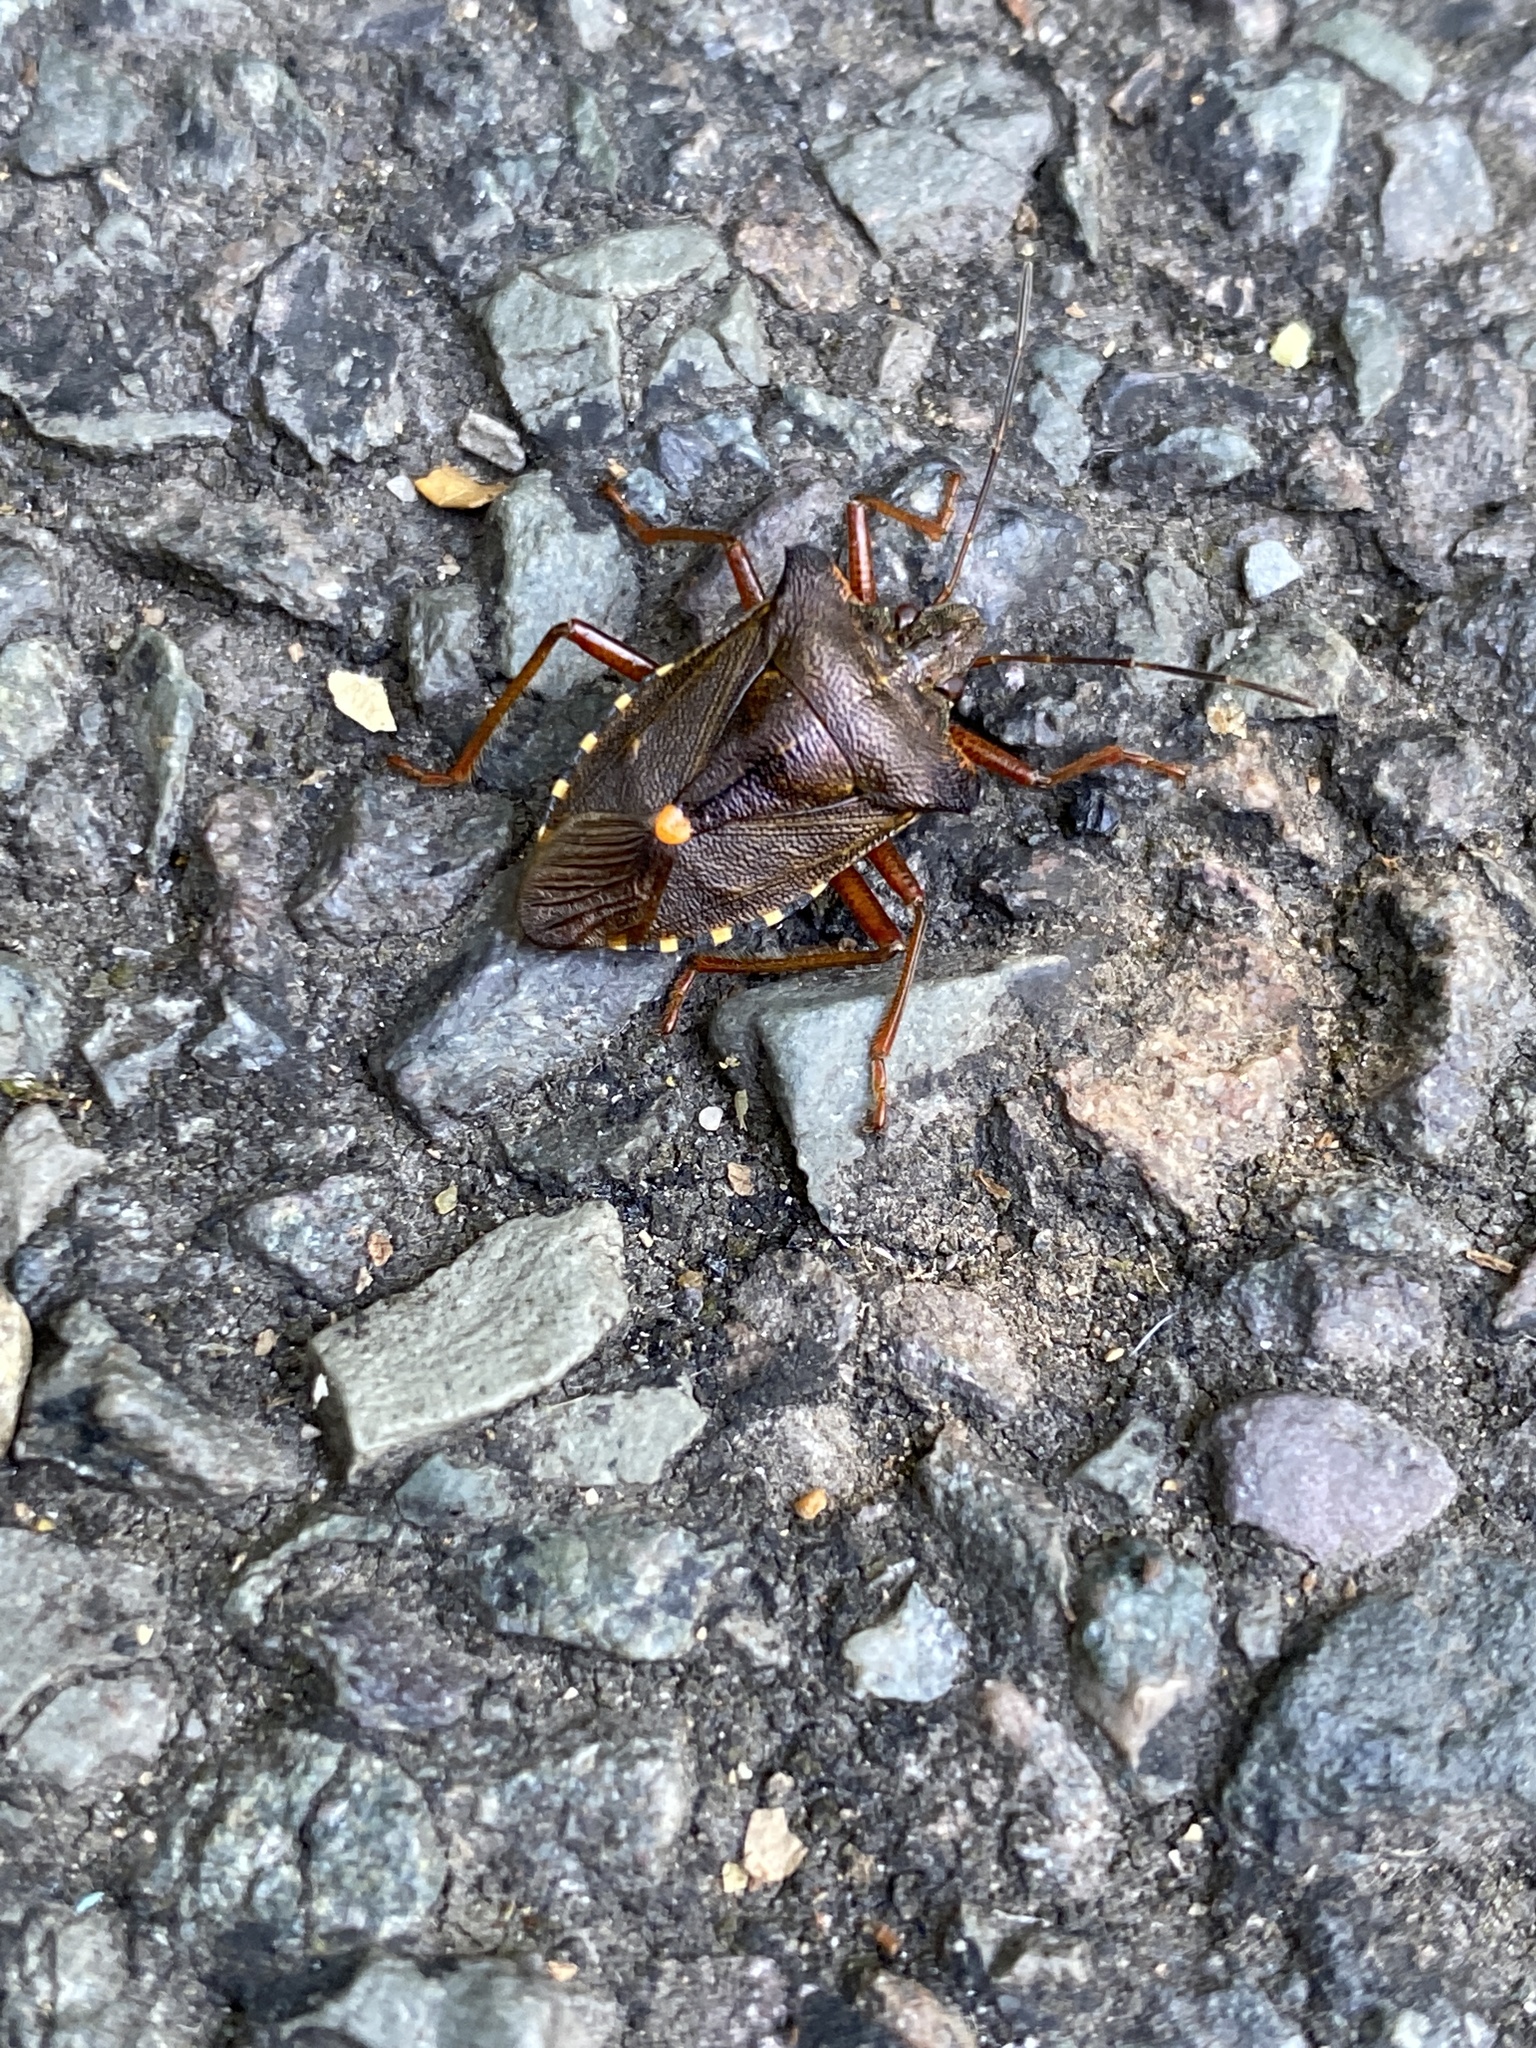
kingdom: Animalia
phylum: Arthropoda
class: Insecta
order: Hemiptera
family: Pentatomidae
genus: Pentatoma
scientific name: Pentatoma rufipes
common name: Forest bug
